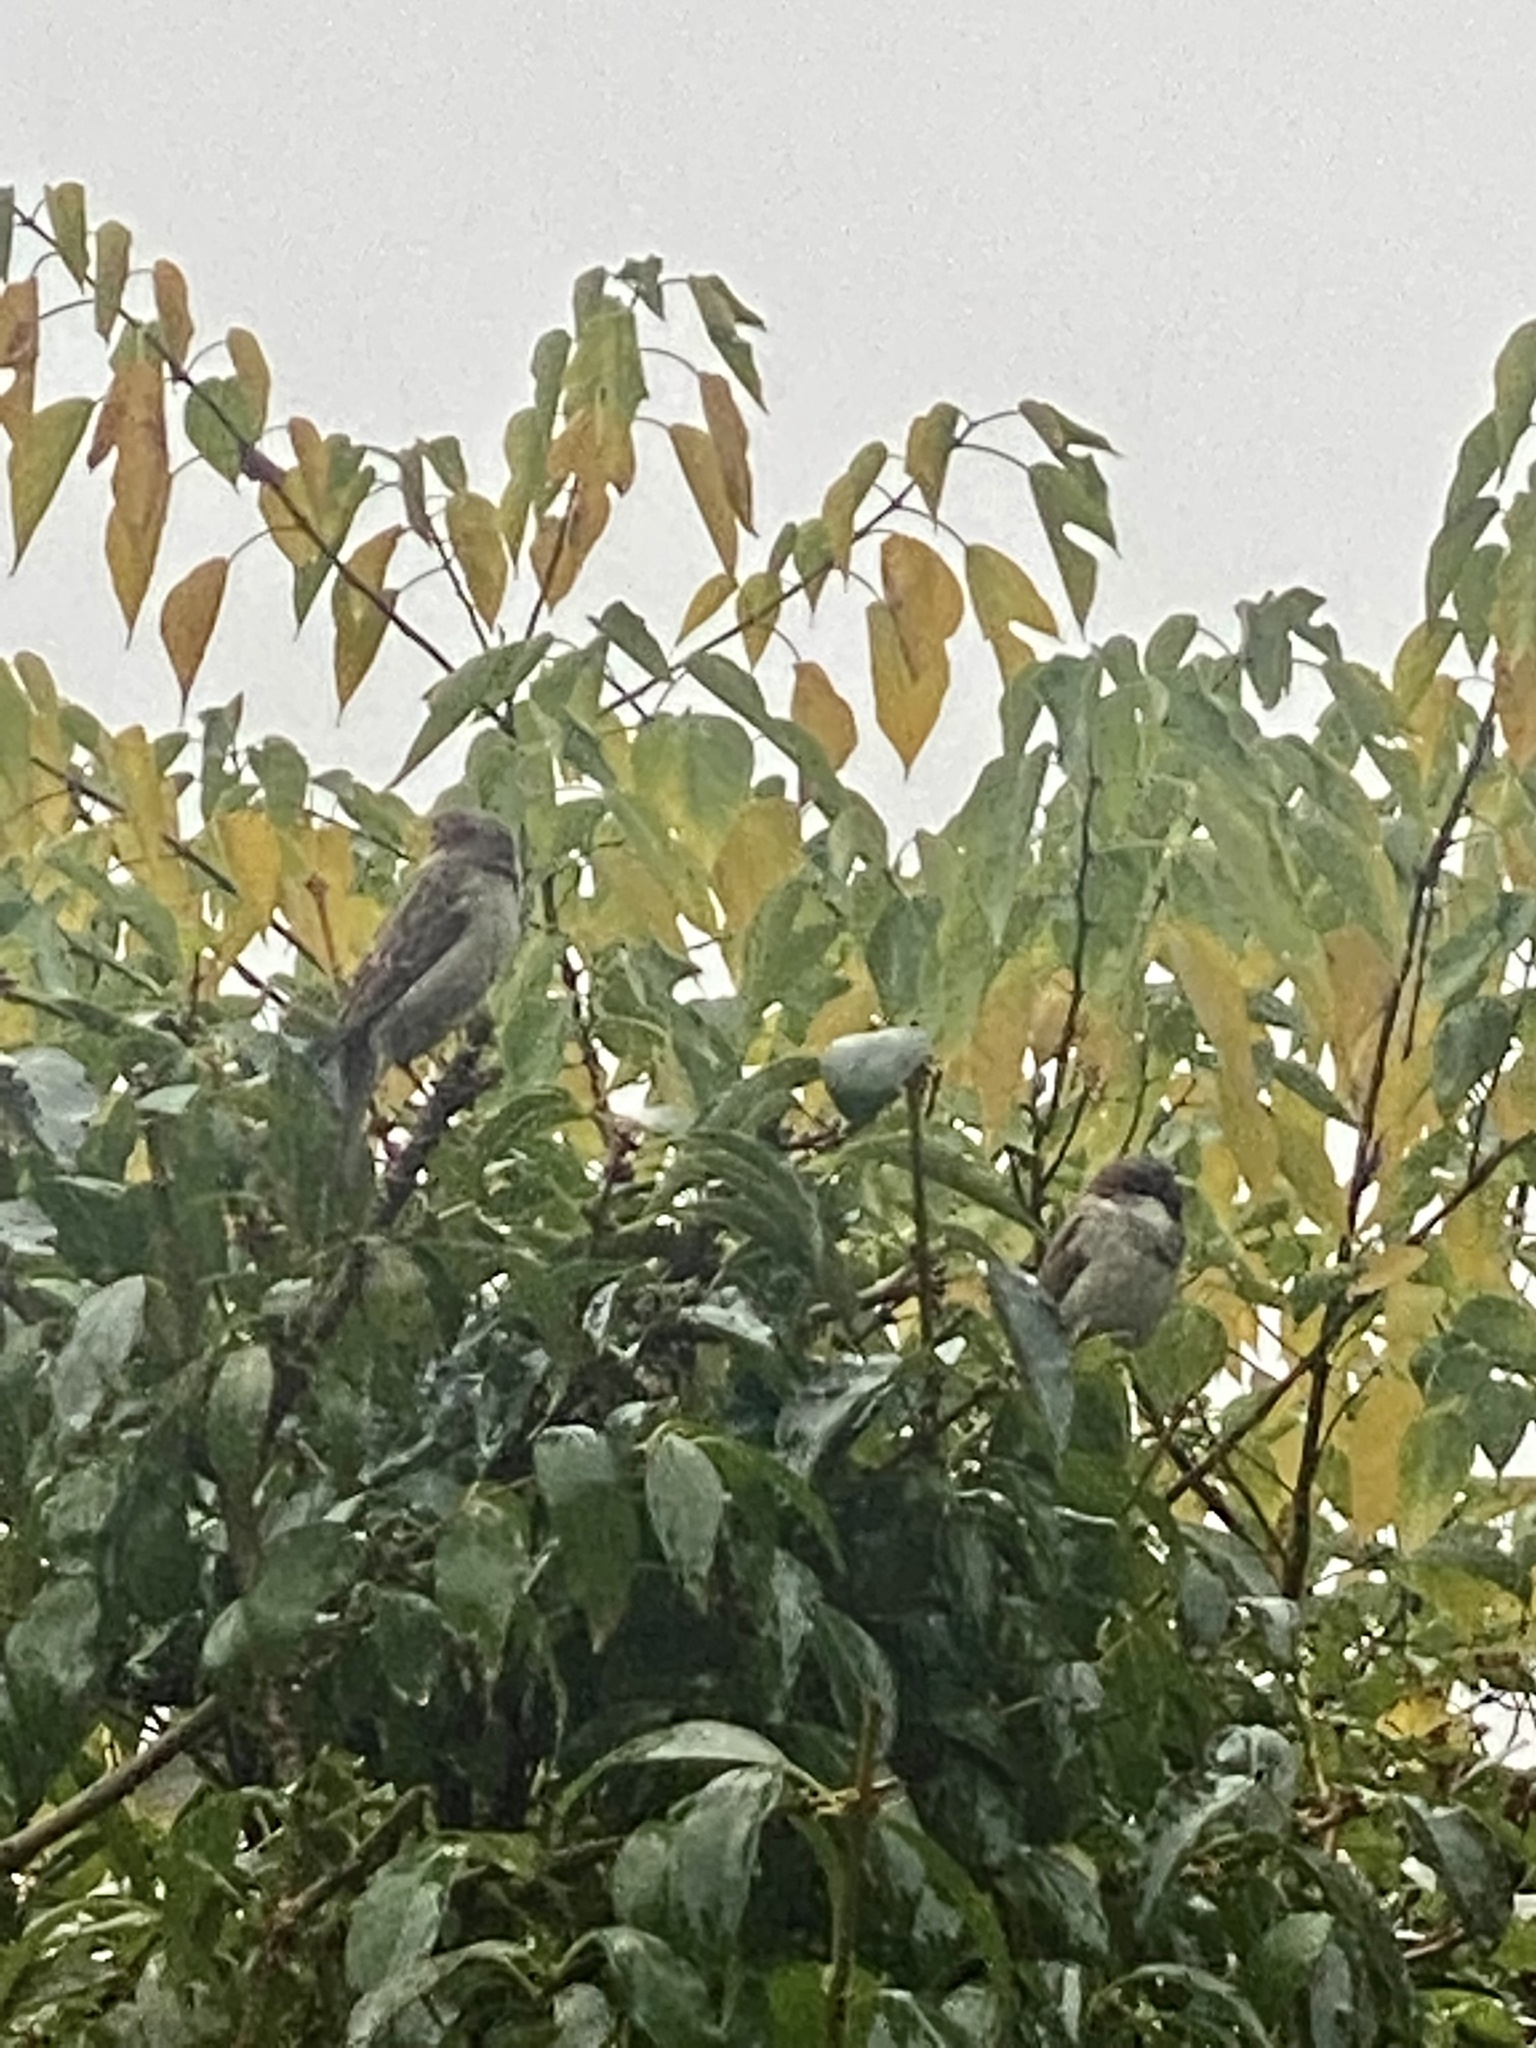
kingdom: Animalia
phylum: Chordata
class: Aves
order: Passeriformes
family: Passeridae
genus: Passer
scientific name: Passer domesticus
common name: House sparrow
